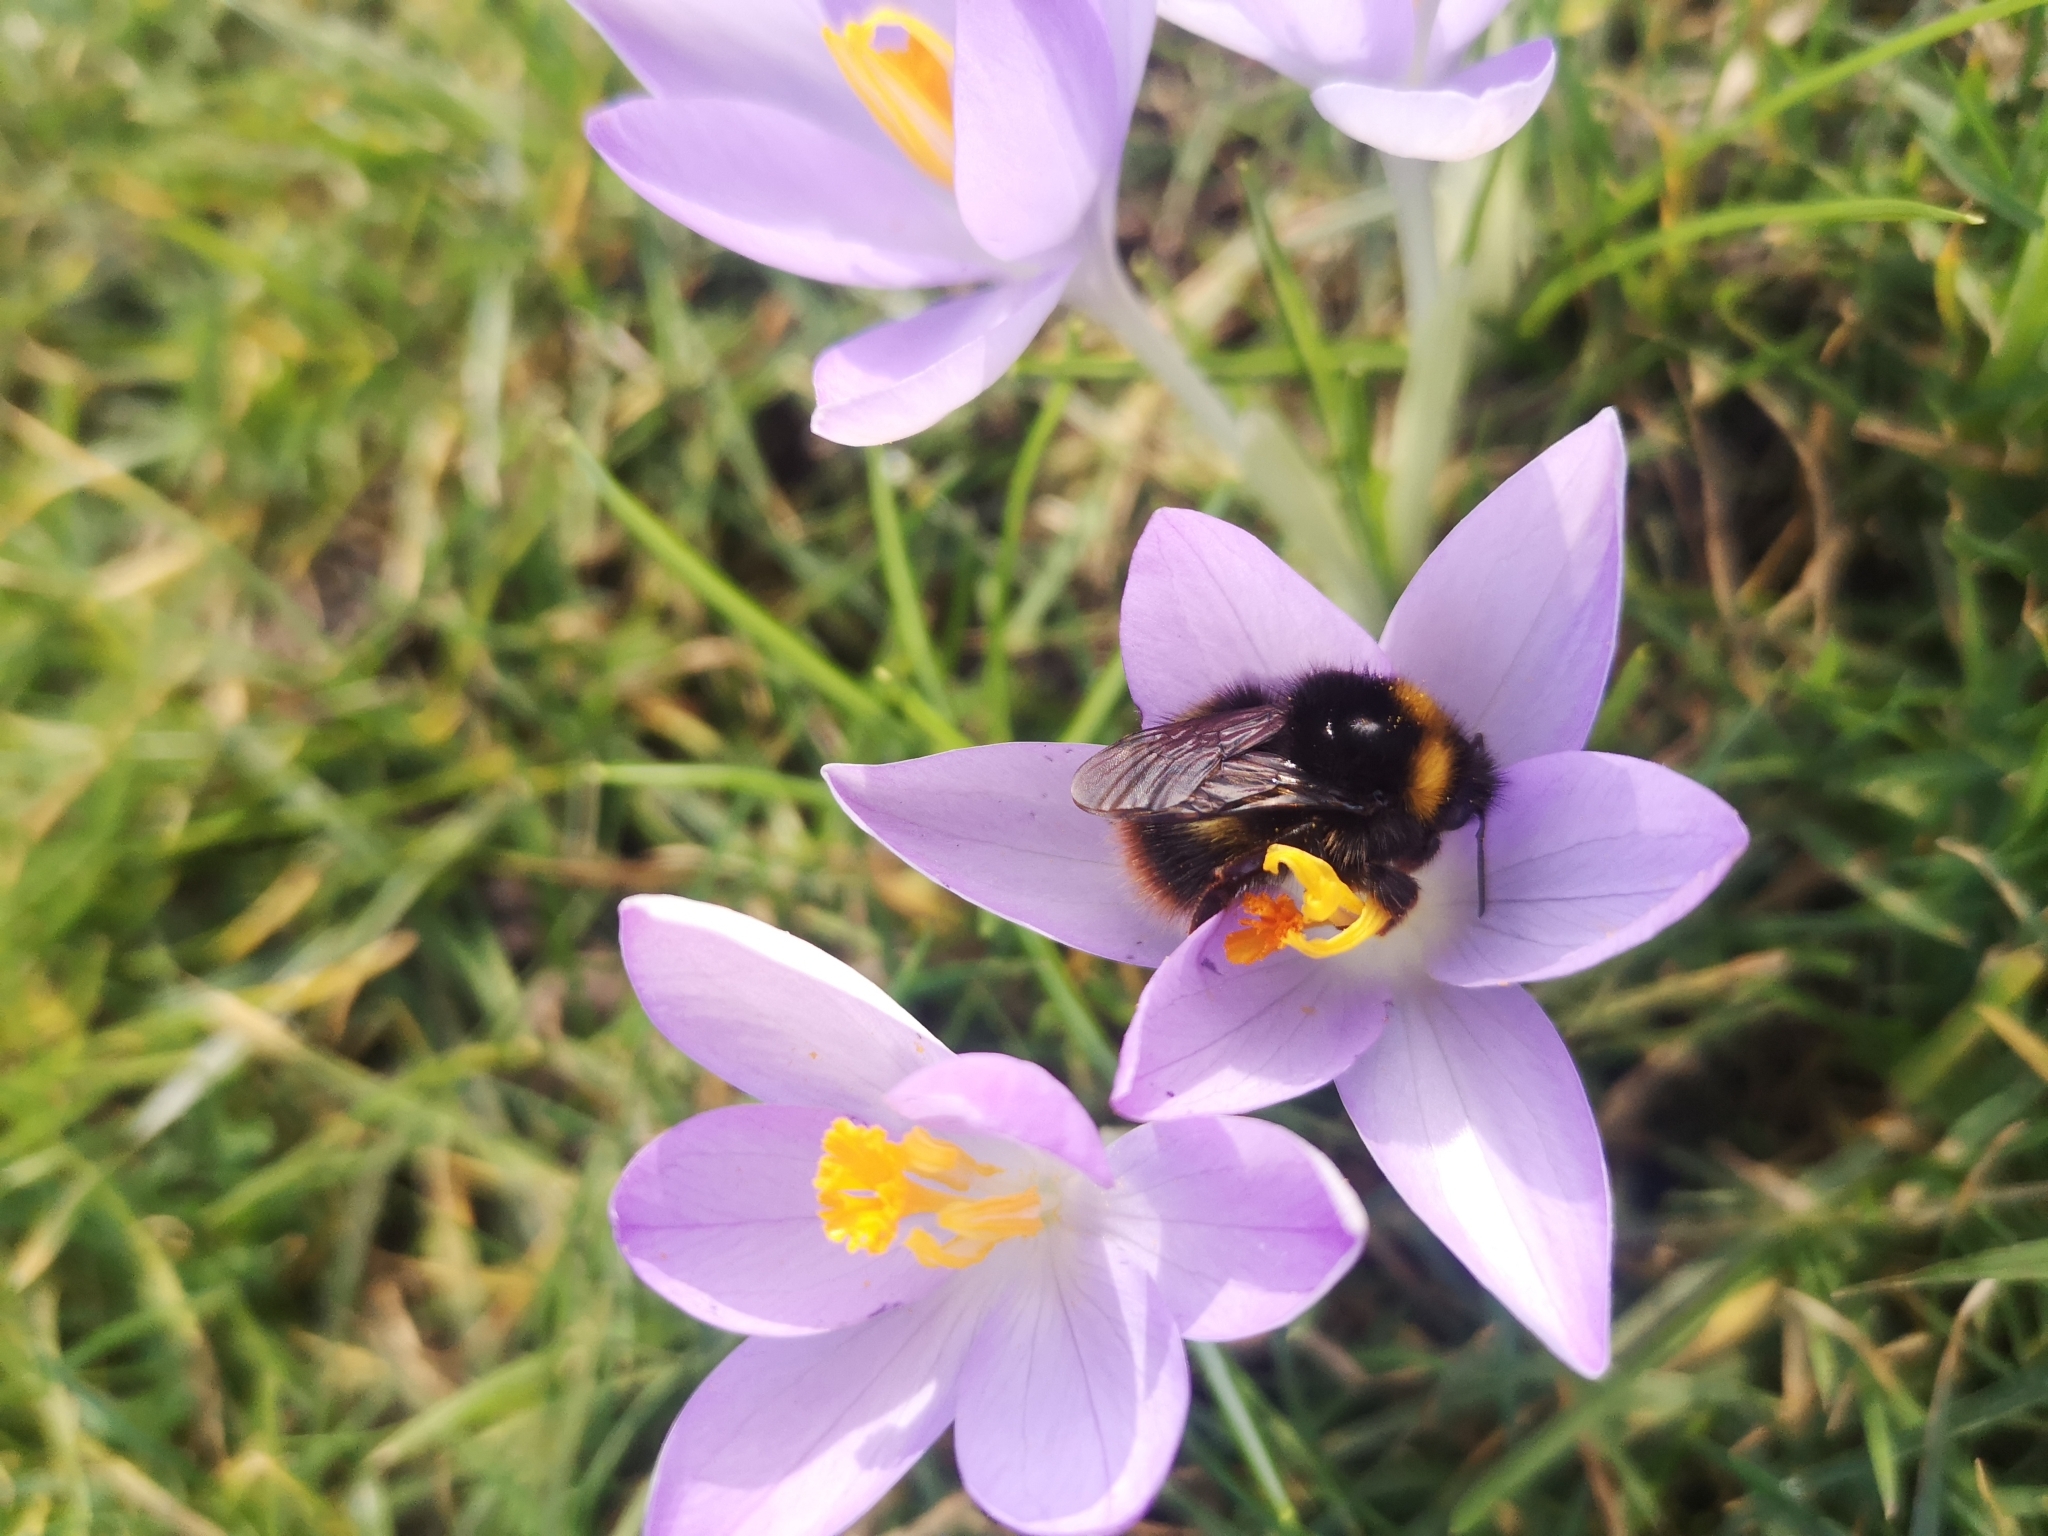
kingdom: Animalia
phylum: Arthropoda
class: Insecta
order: Hymenoptera
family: Apidae
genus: Bombus
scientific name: Bombus pratorum
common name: Early humble-bee
